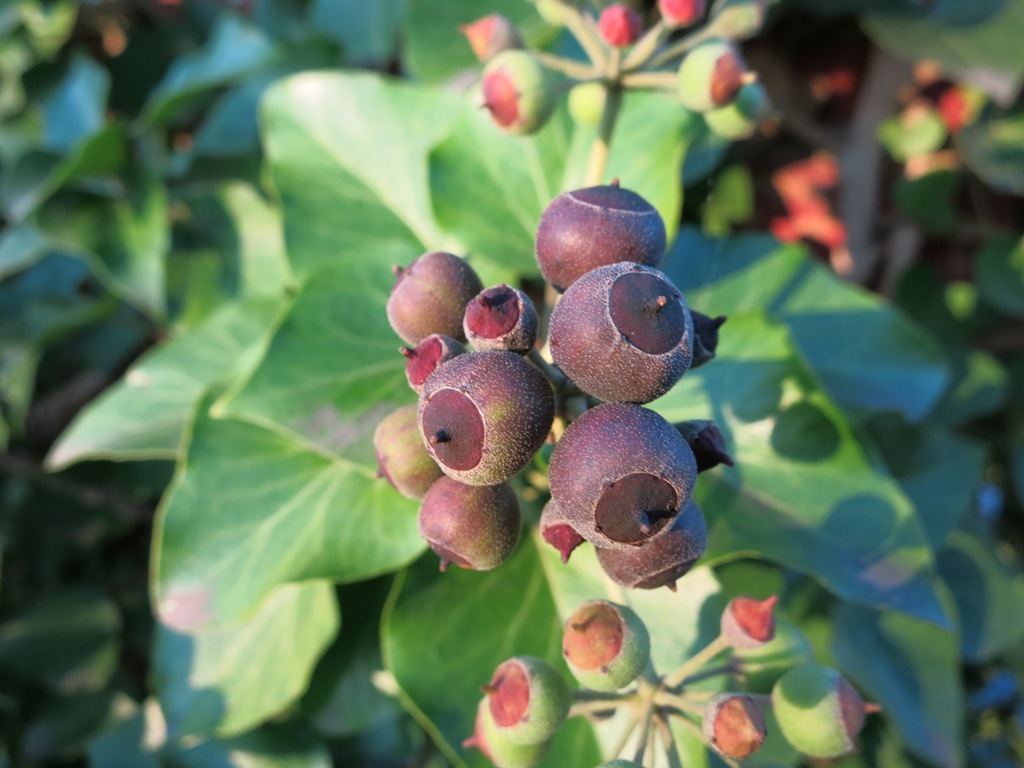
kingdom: Plantae
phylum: Tracheophyta
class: Magnoliopsida
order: Apiales
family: Araliaceae
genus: Hedera
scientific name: Hedera helix
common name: Ivy
